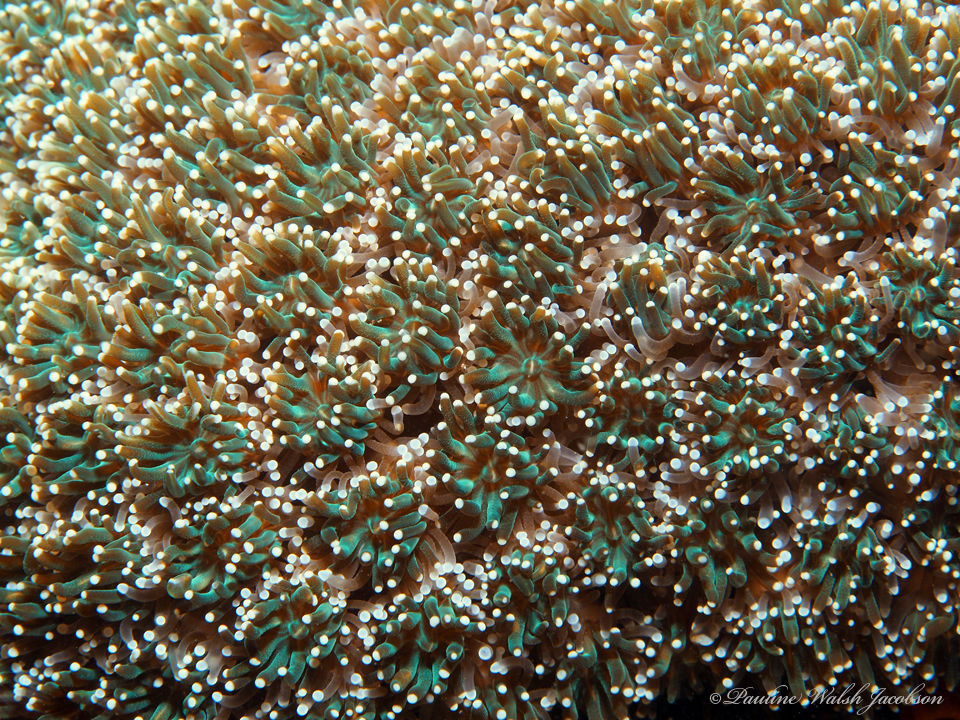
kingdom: Animalia
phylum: Cnidaria
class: Anthozoa
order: Scleractinia
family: Euphylliidae
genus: Galaxea
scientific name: Galaxea fascicularis
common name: Octopus coral
